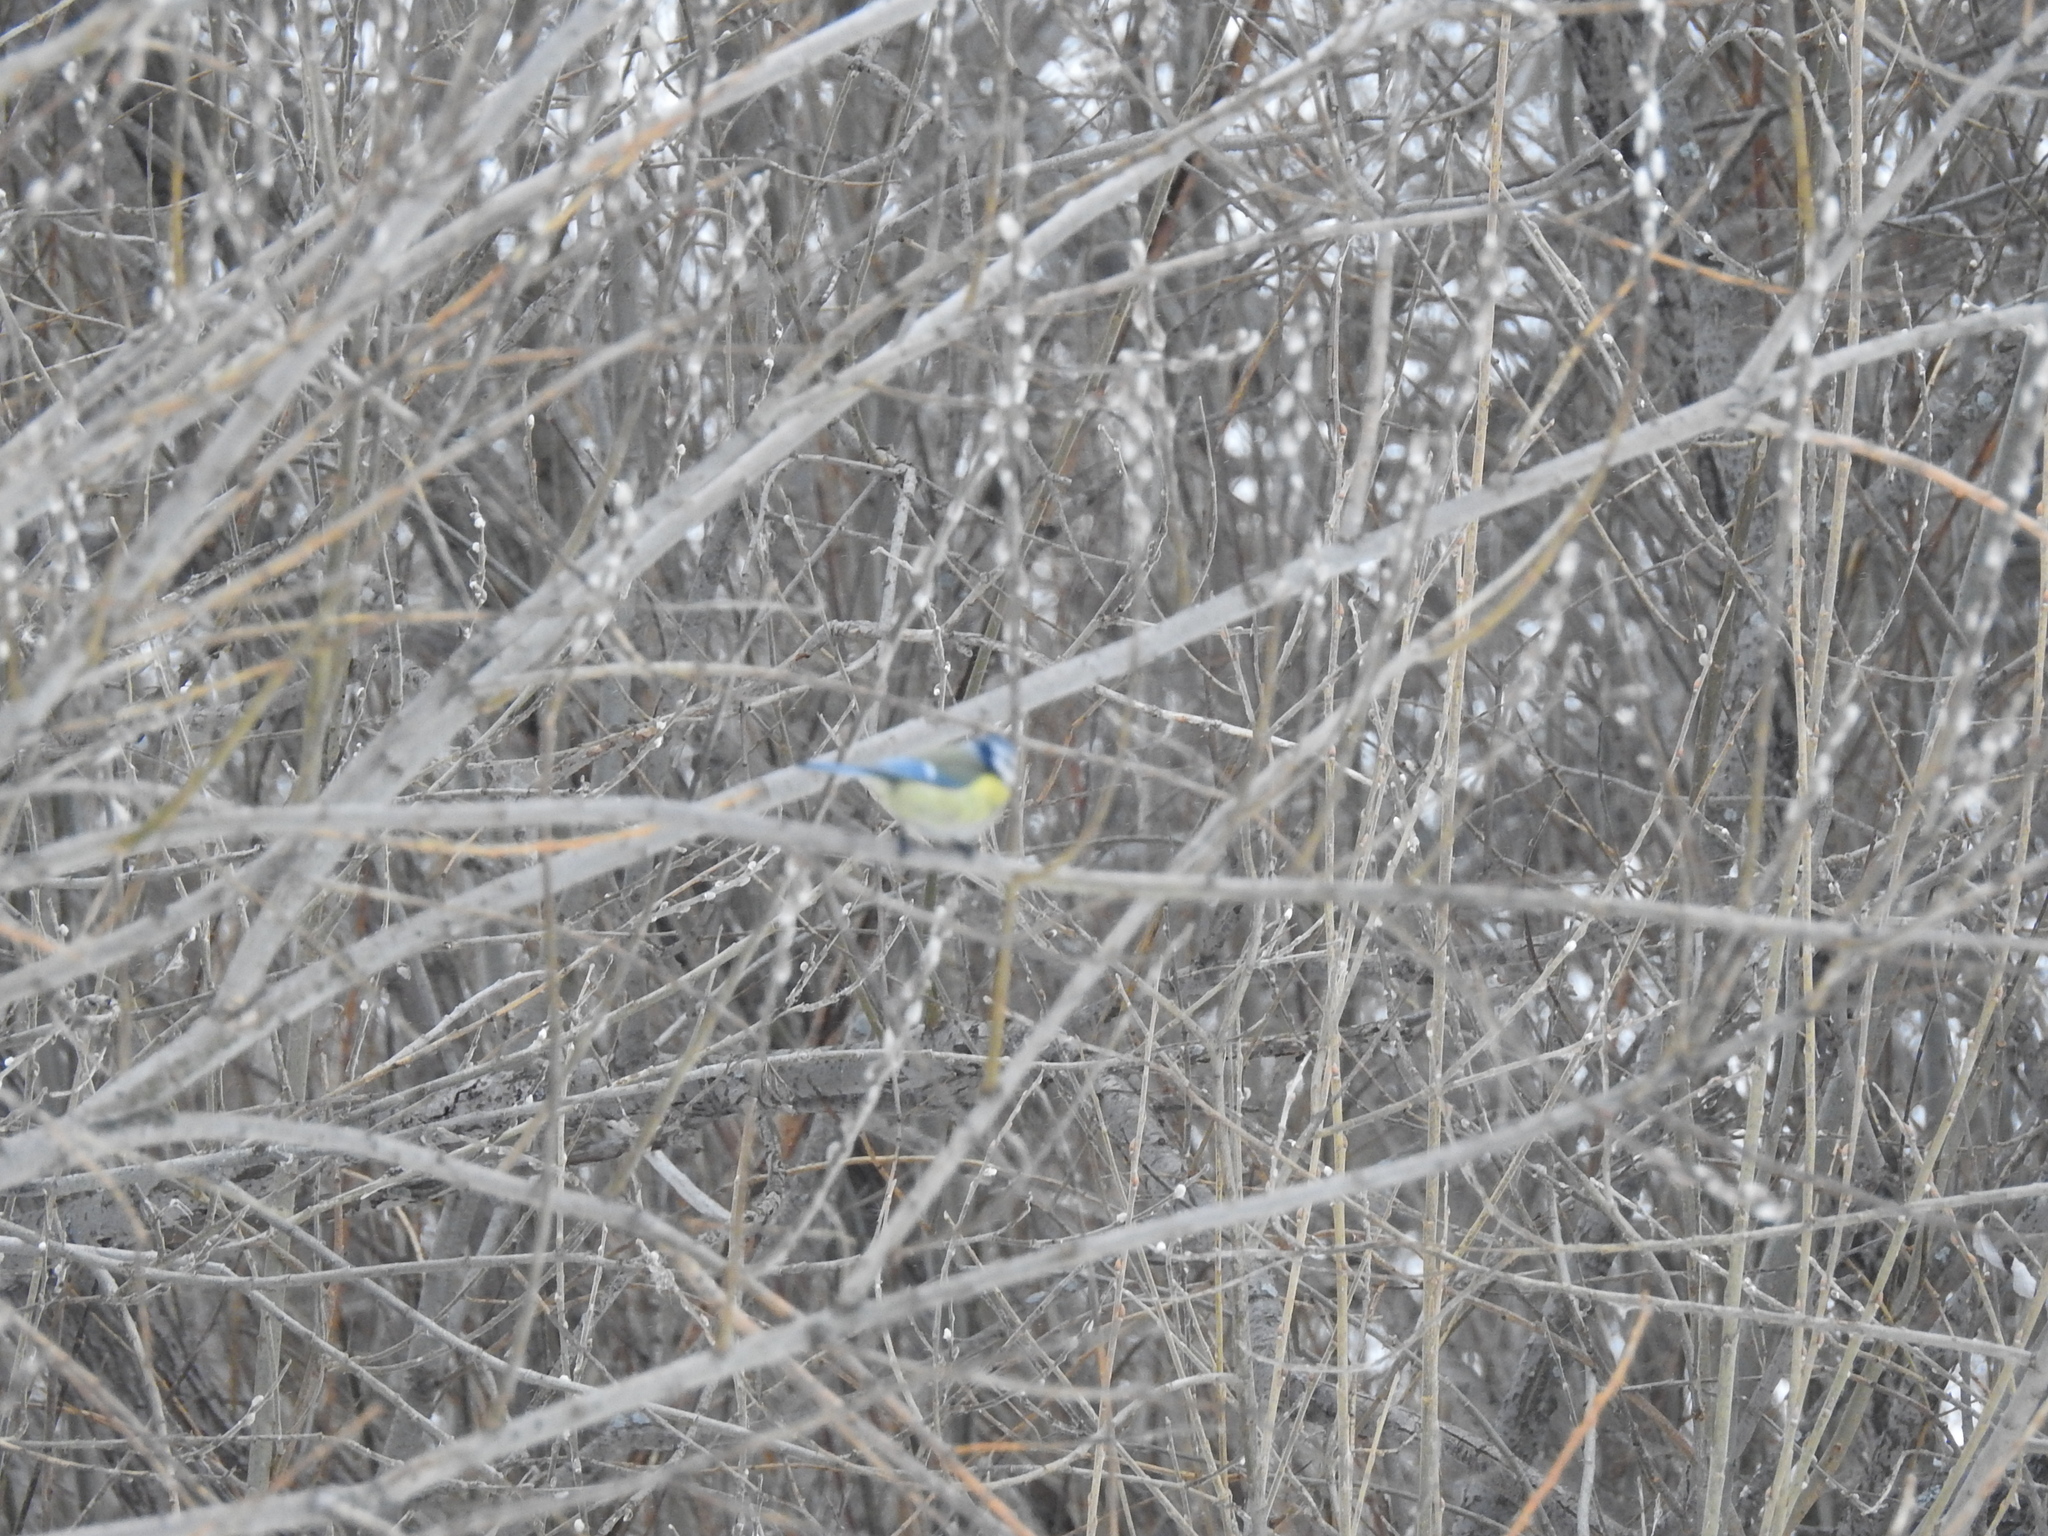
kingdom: Animalia
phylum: Chordata
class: Aves
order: Passeriformes
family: Paridae
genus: Cyanistes
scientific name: Cyanistes caeruleus
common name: Eurasian blue tit
